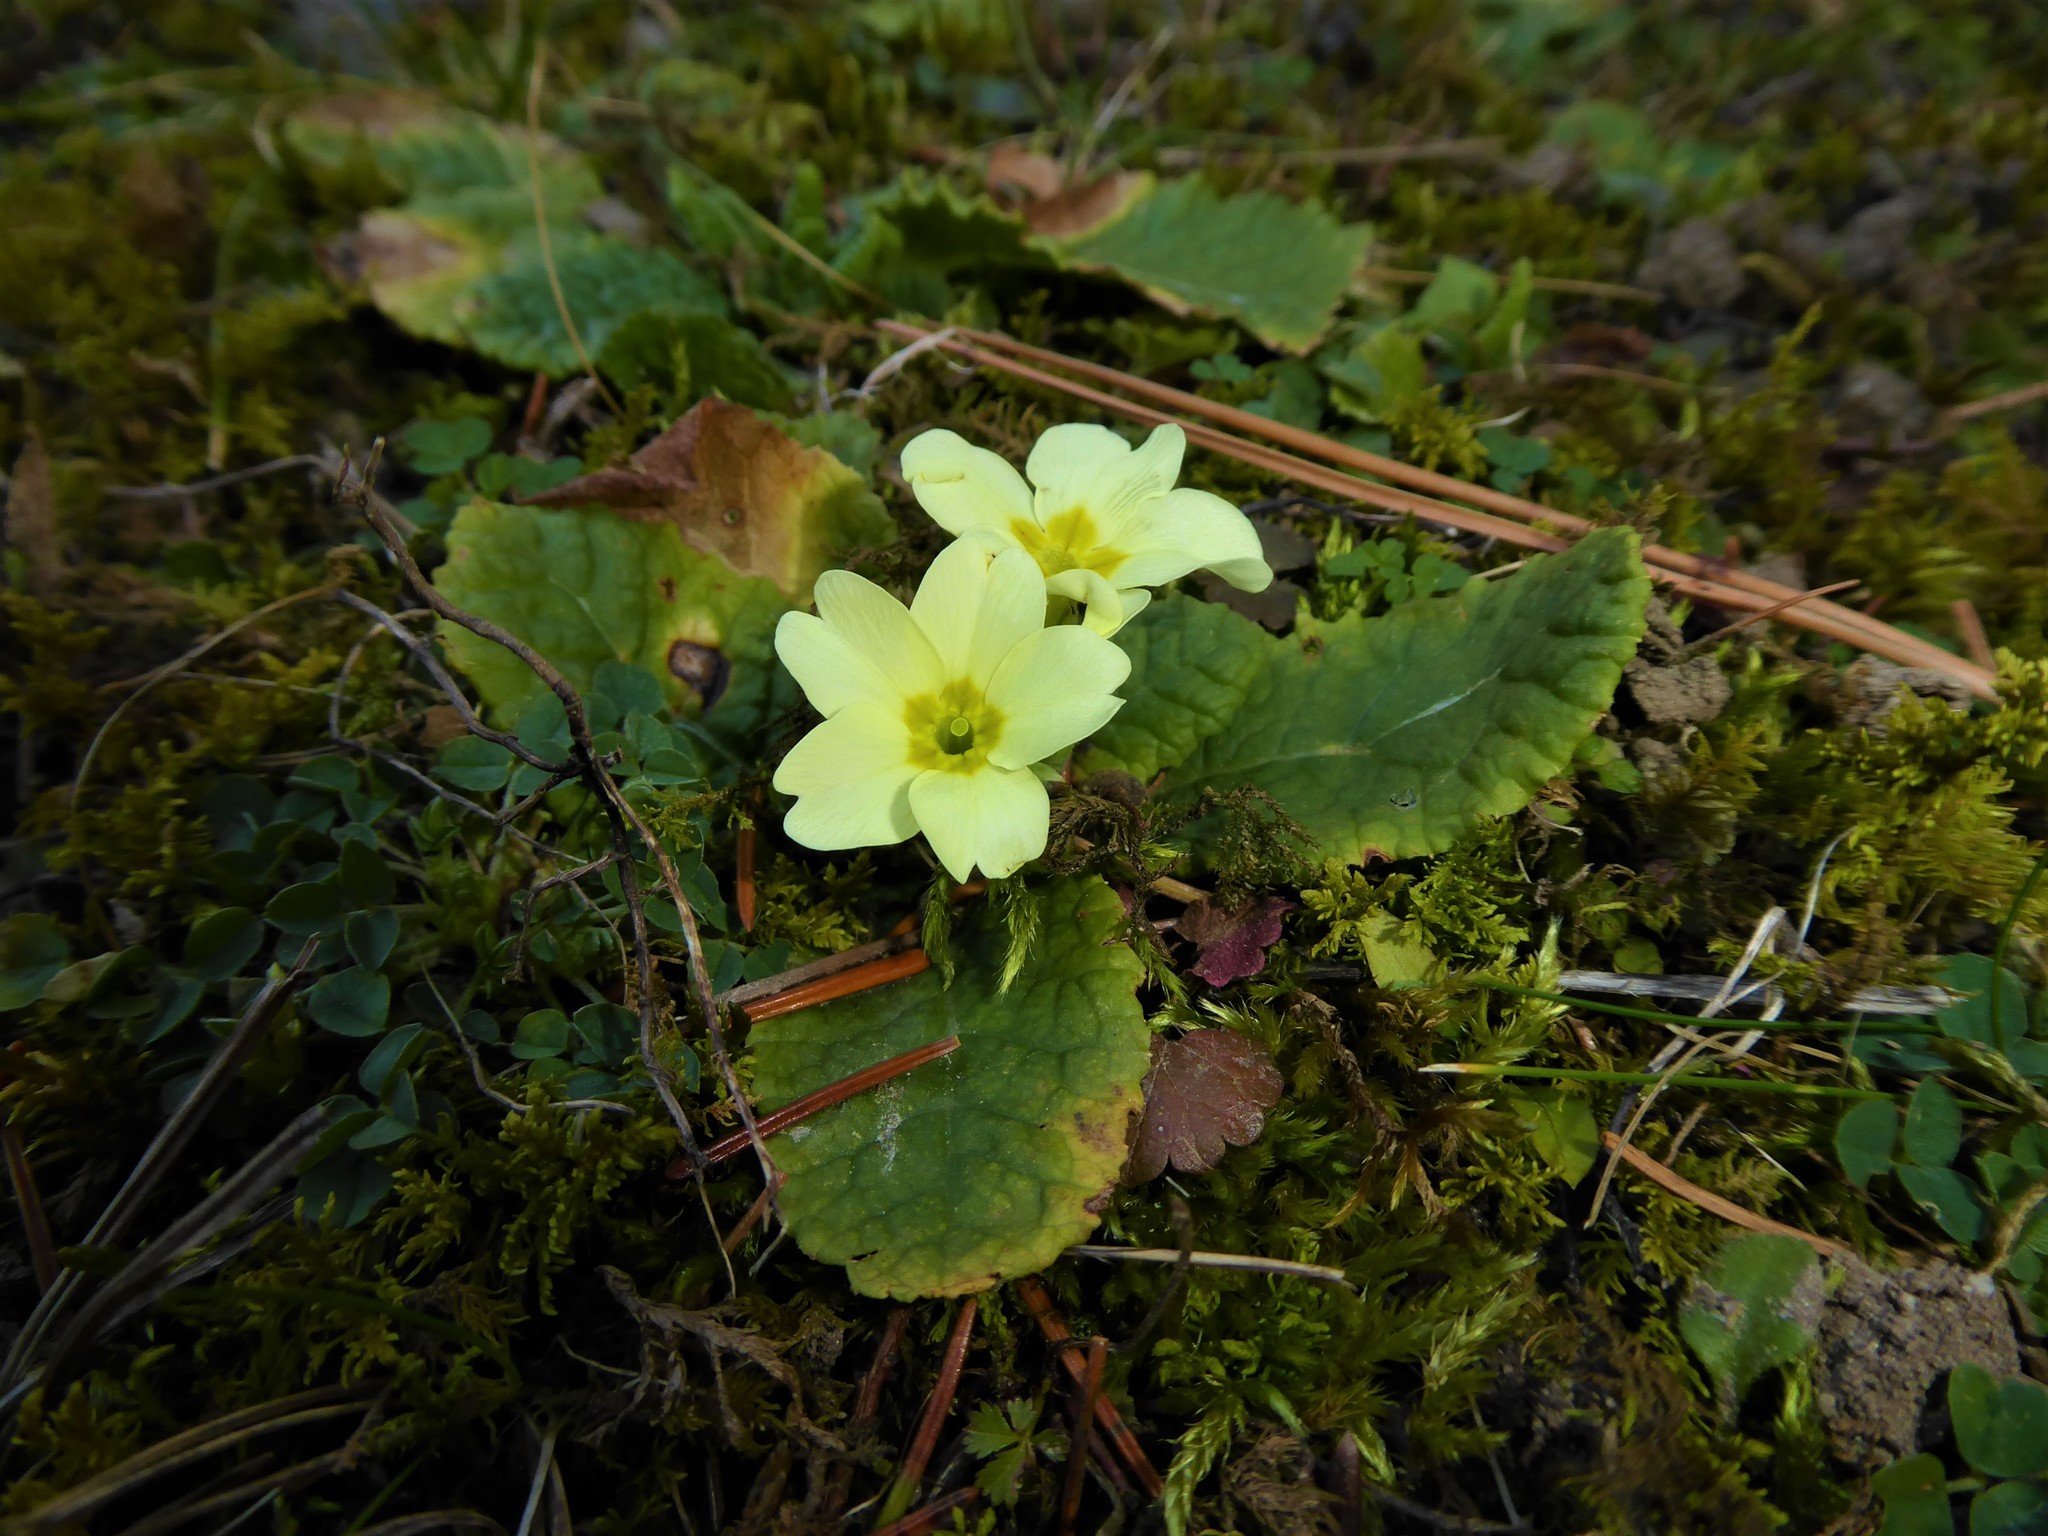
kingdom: Plantae
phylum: Tracheophyta
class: Magnoliopsida
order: Ericales
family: Primulaceae
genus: Primula
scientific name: Primula vulgaris
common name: Primrose
